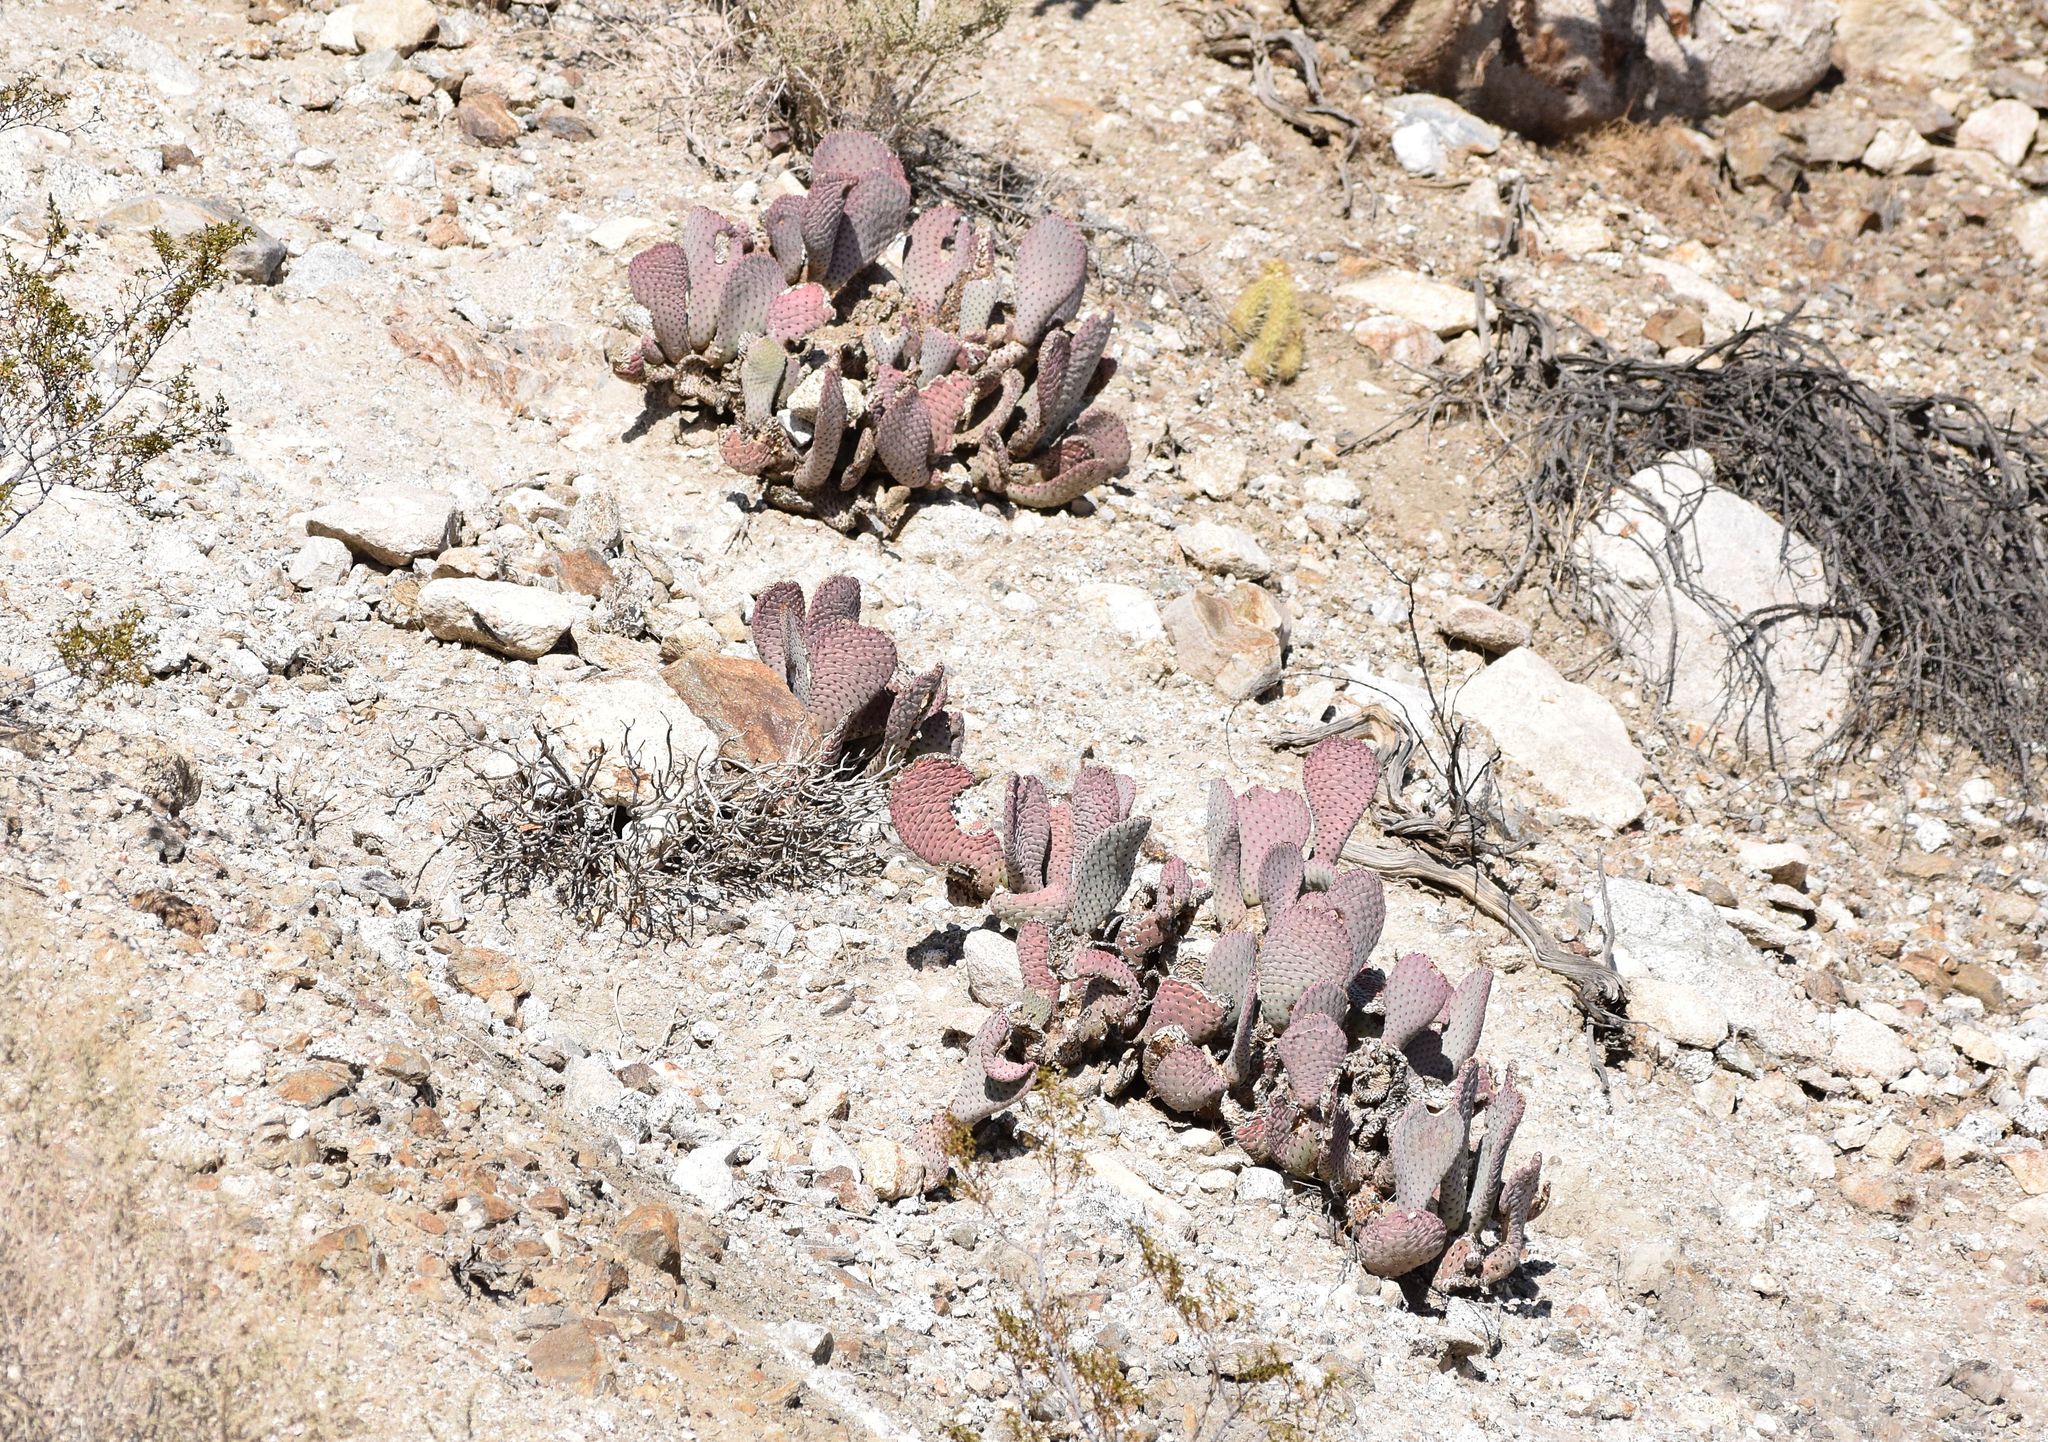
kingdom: Plantae
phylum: Tracheophyta
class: Magnoliopsida
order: Caryophyllales
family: Cactaceae
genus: Opuntia
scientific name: Opuntia basilaris
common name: Beavertail prickly-pear
